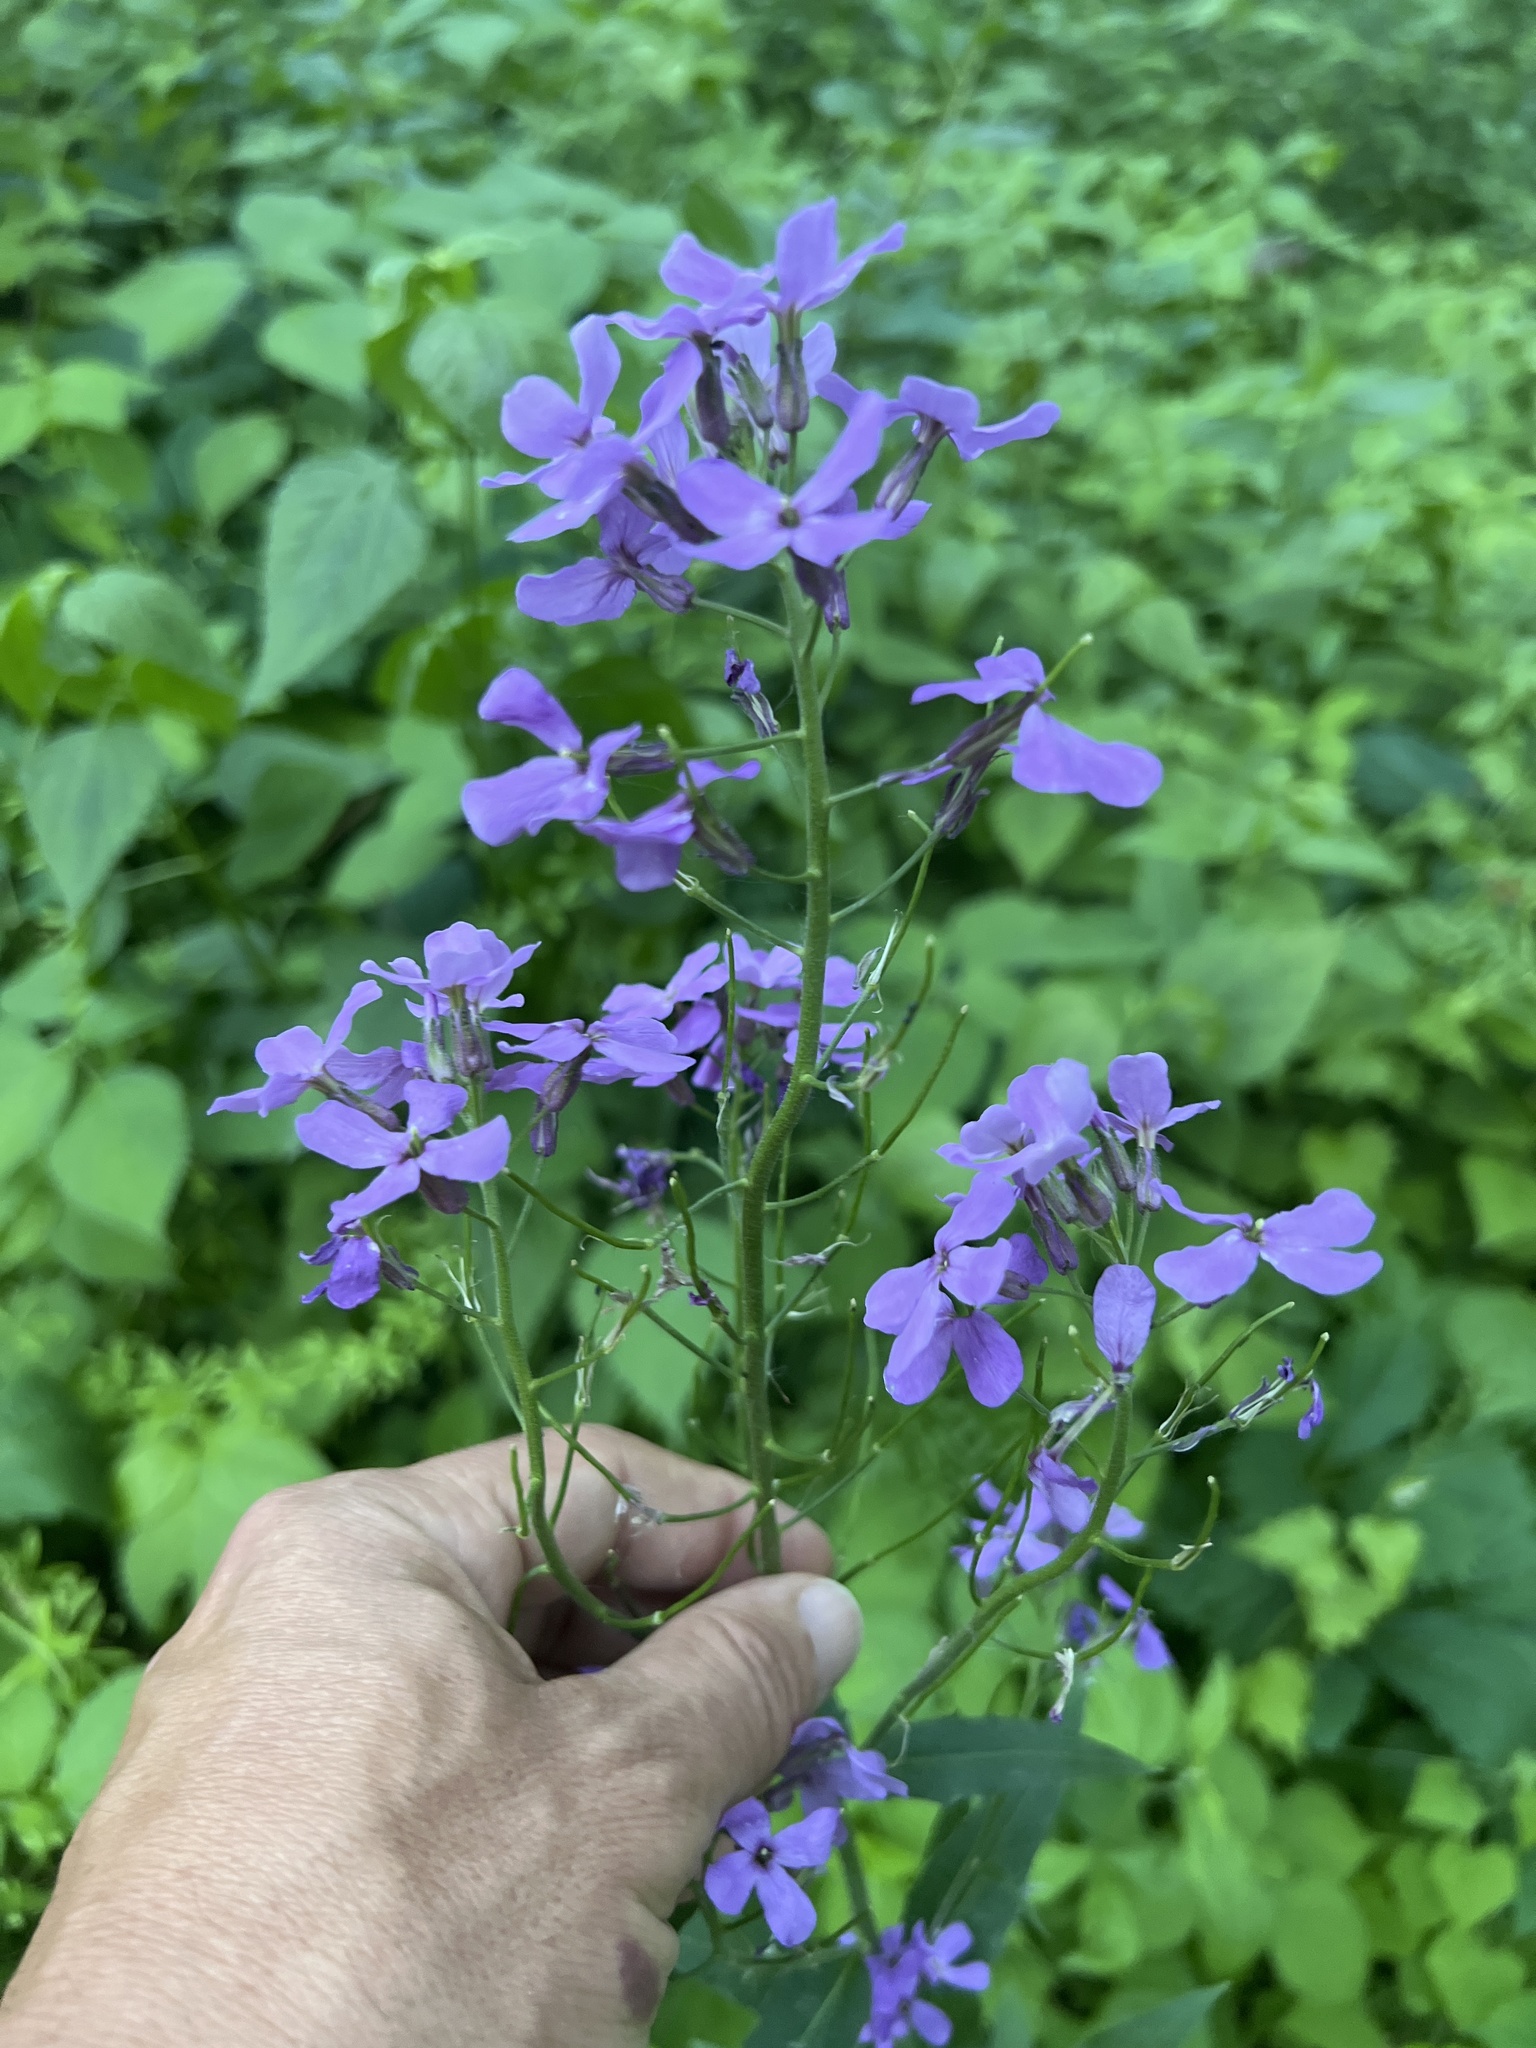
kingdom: Plantae
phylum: Tracheophyta
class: Magnoliopsida
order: Brassicales
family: Brassicaceae
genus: Hesperis
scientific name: Hesperis matronalis
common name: Dame's-violet
